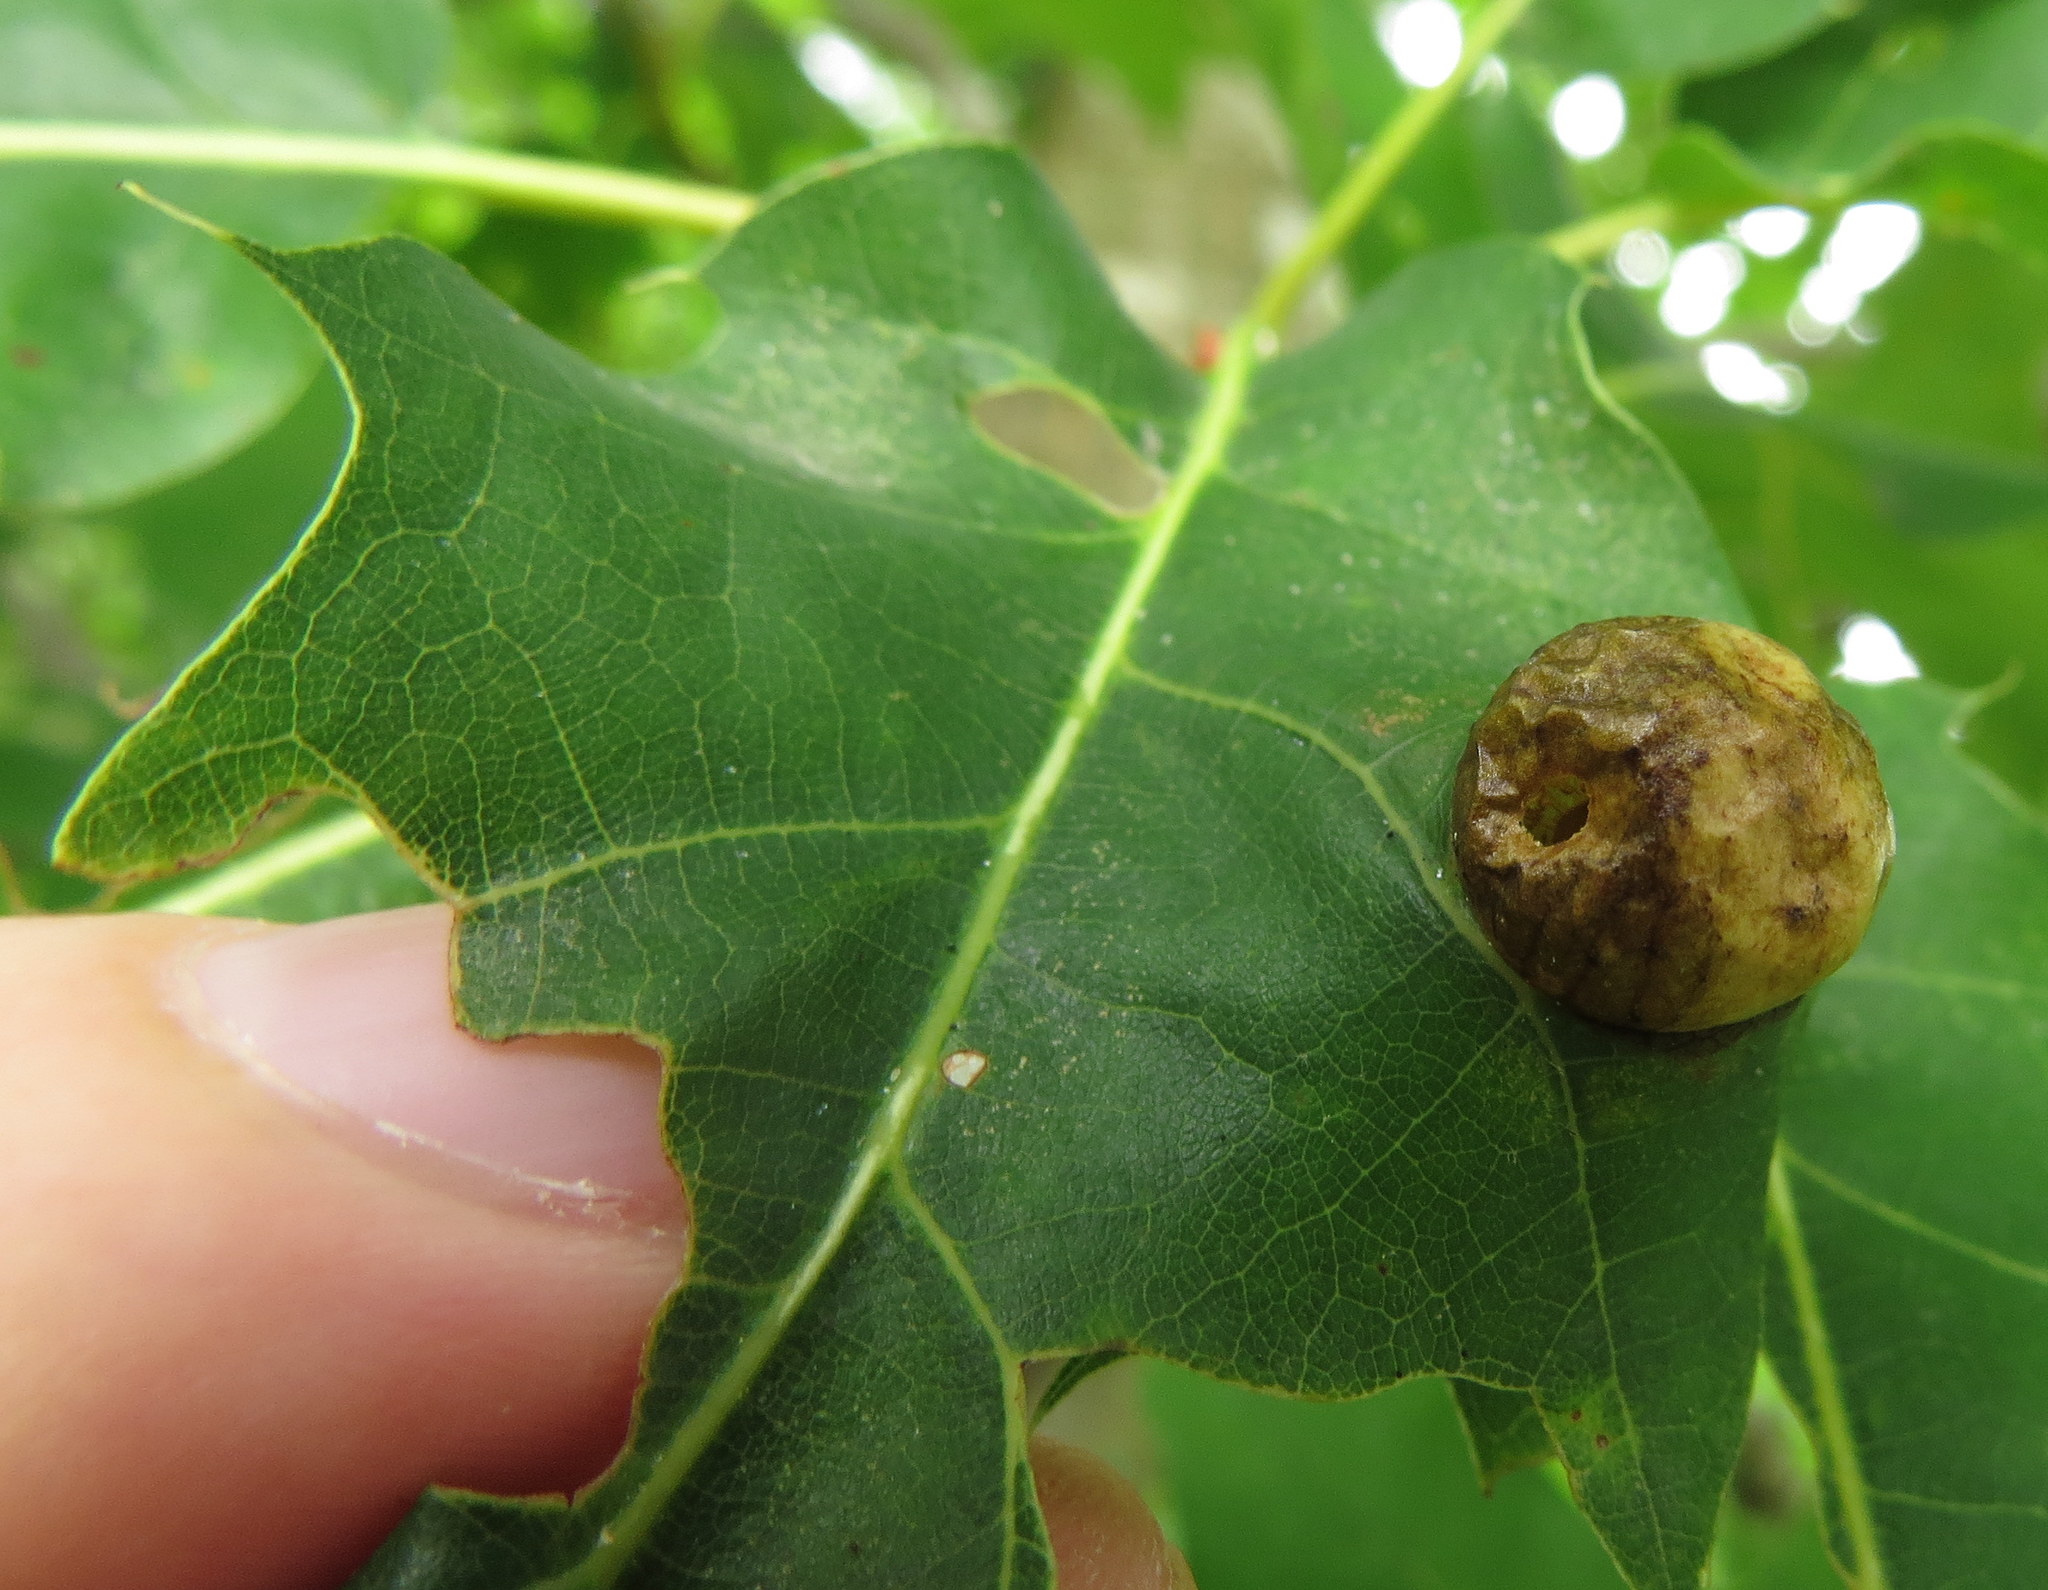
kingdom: Animalia
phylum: Arthropoda
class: Insecta
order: Hymenoptera
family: Cynipidae
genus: Amphibolips
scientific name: Amphibolips
